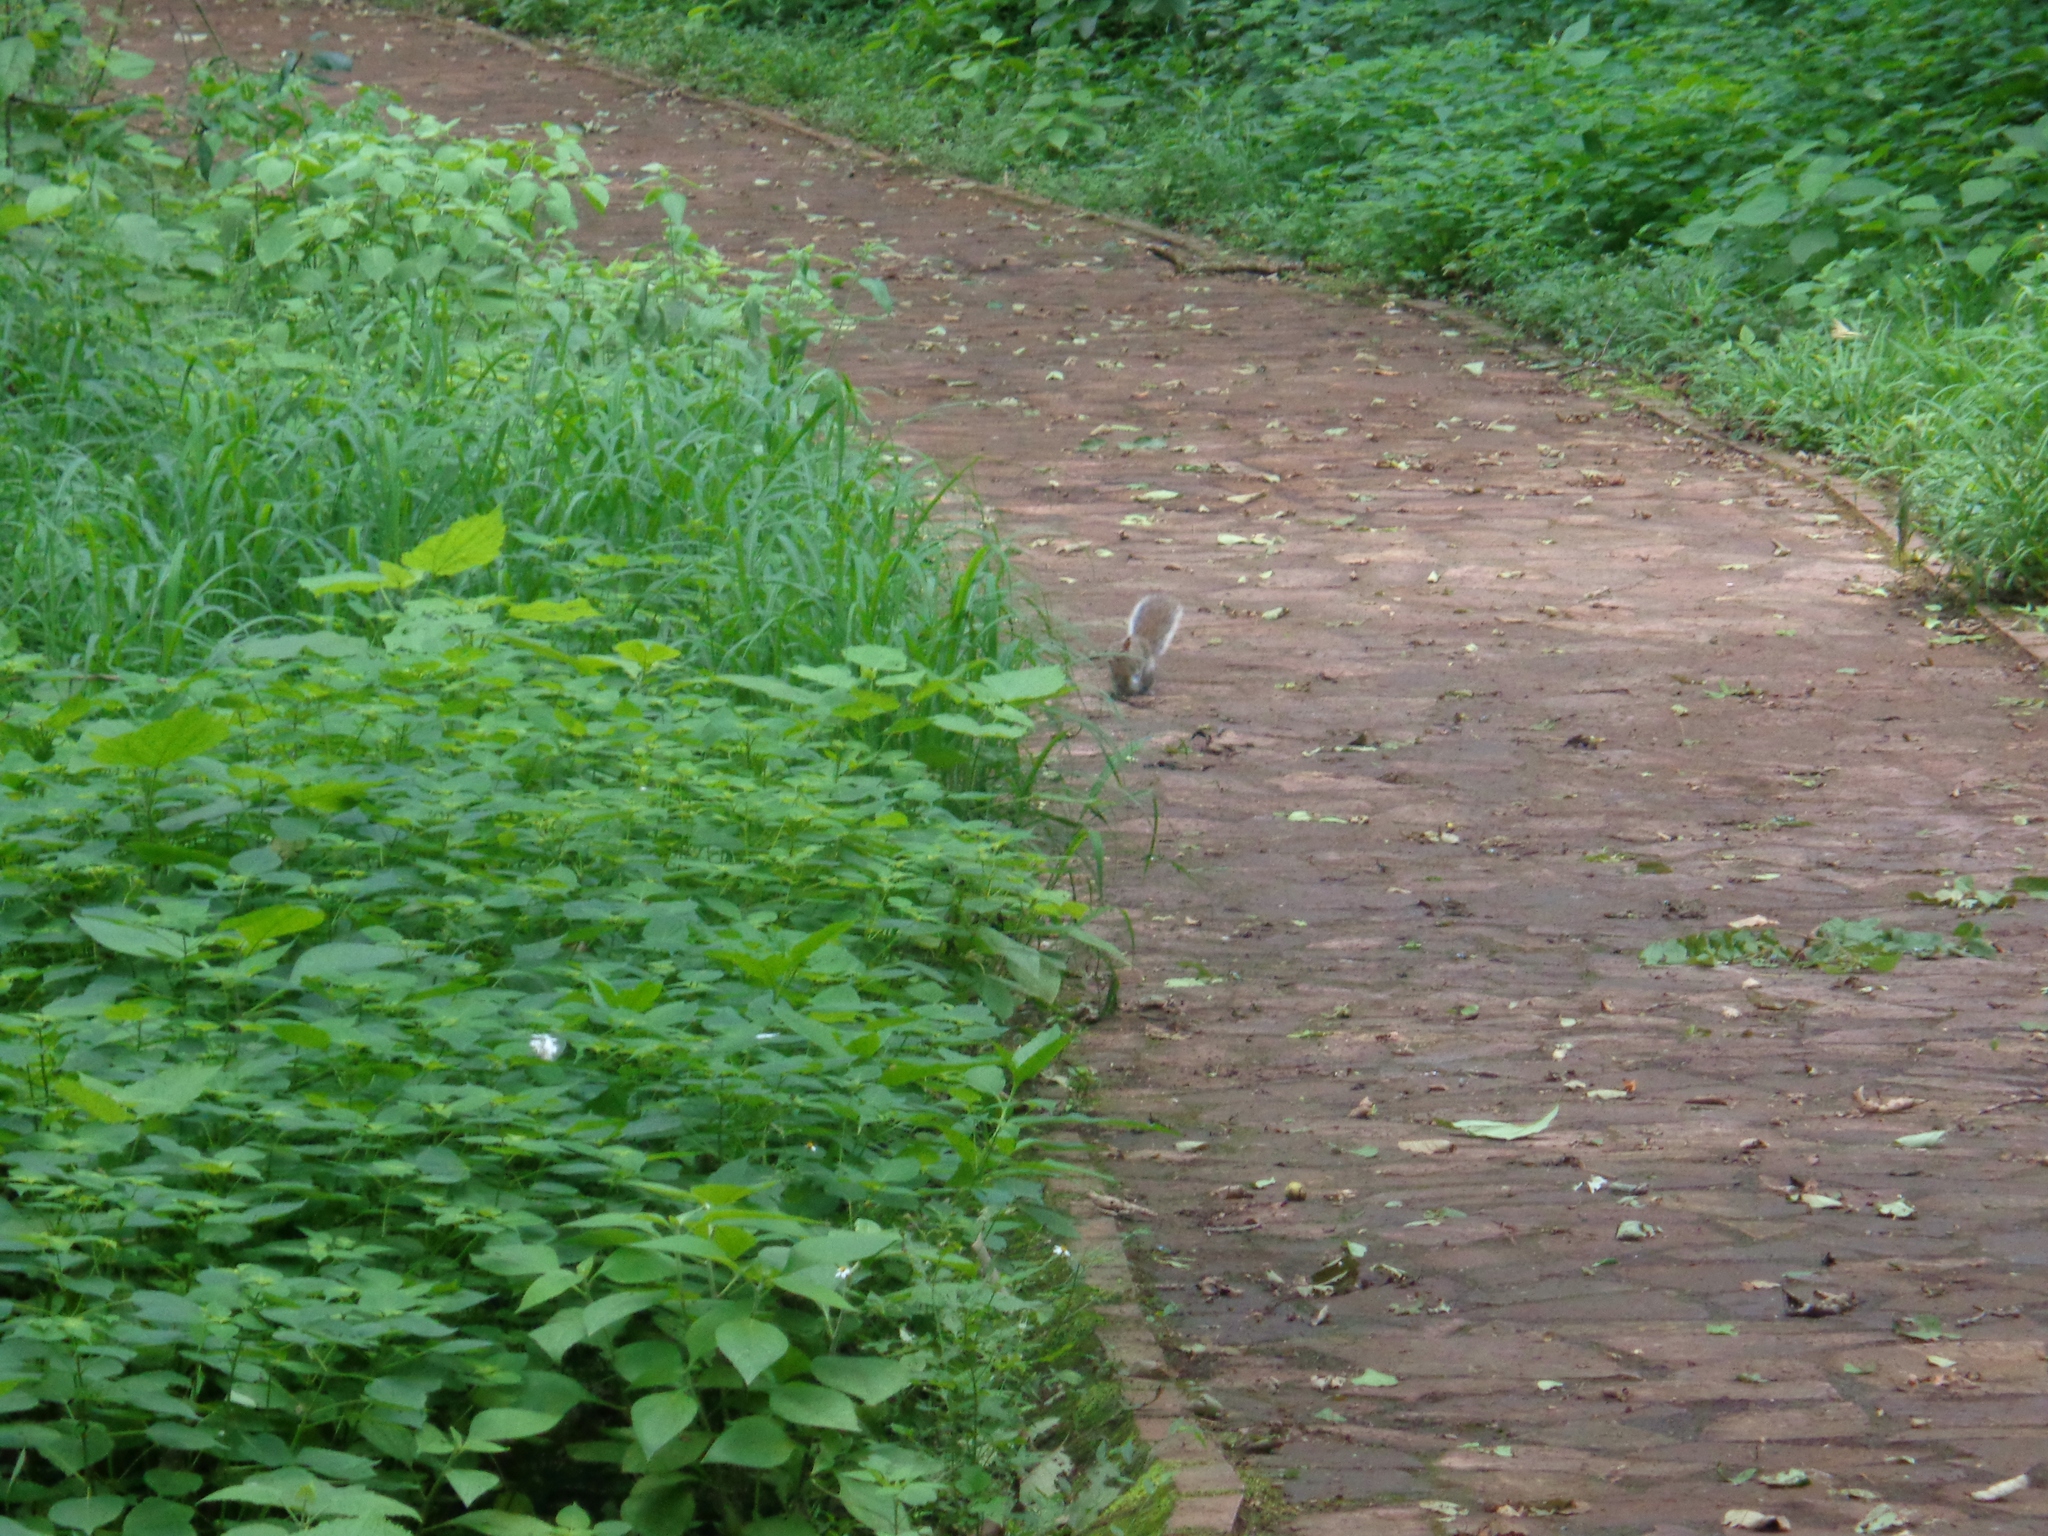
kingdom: Animalia
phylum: Chordata
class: Mammalia
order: Rodentia
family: Sciuridae
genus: Sciurus
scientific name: Sciurus alleni
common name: Allen's squirrel
